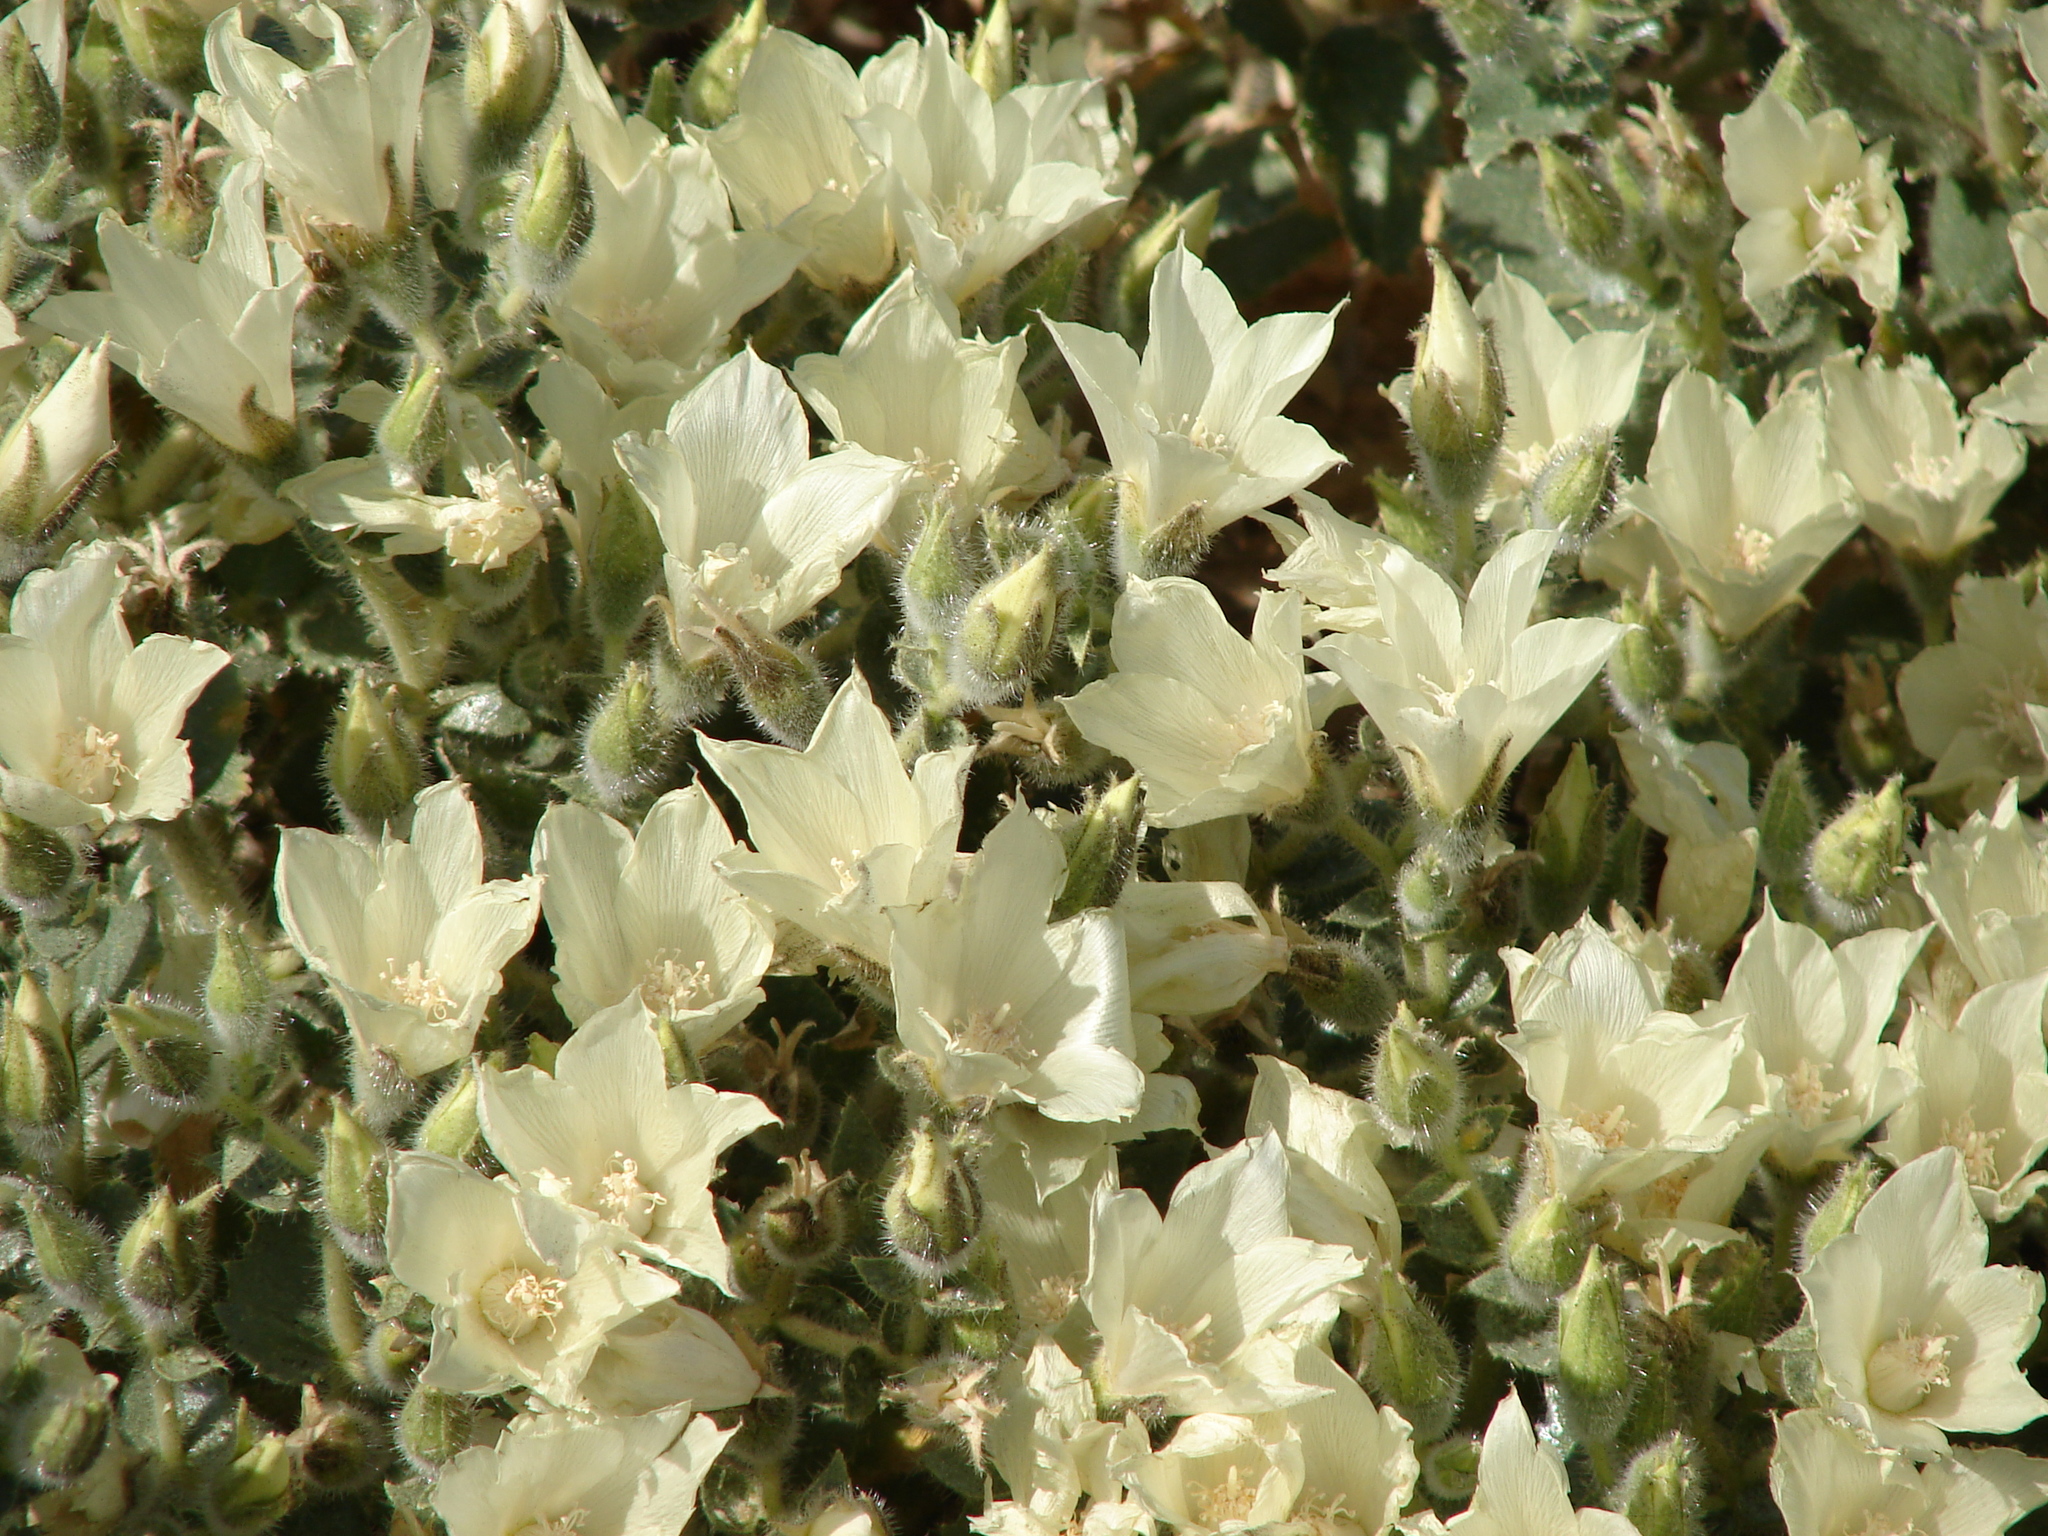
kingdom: Plantae
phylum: Tracheophyta
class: Magnoliopsida
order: Cornales
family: Loasaceae
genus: Eucnide
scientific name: Eucnide urens
